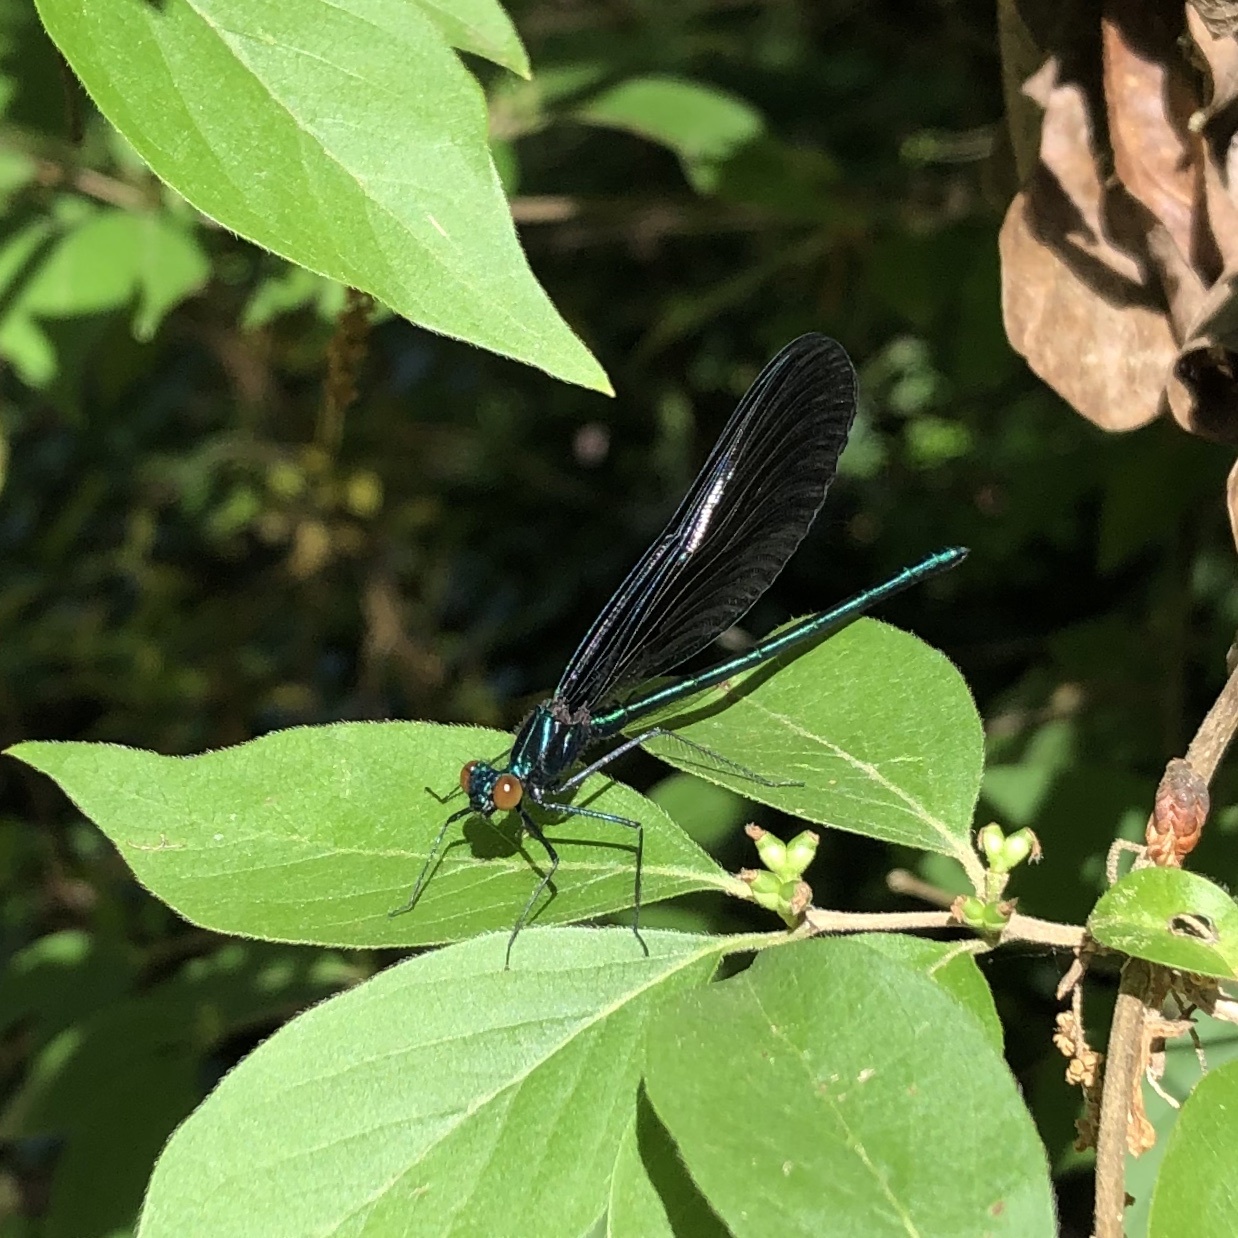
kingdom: Animalia
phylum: Arthropoda
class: Insecta
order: Odonata
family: Calopterygidae
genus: Calopteryx
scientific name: Calopteryx maculata
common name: Ebony jewelwing
